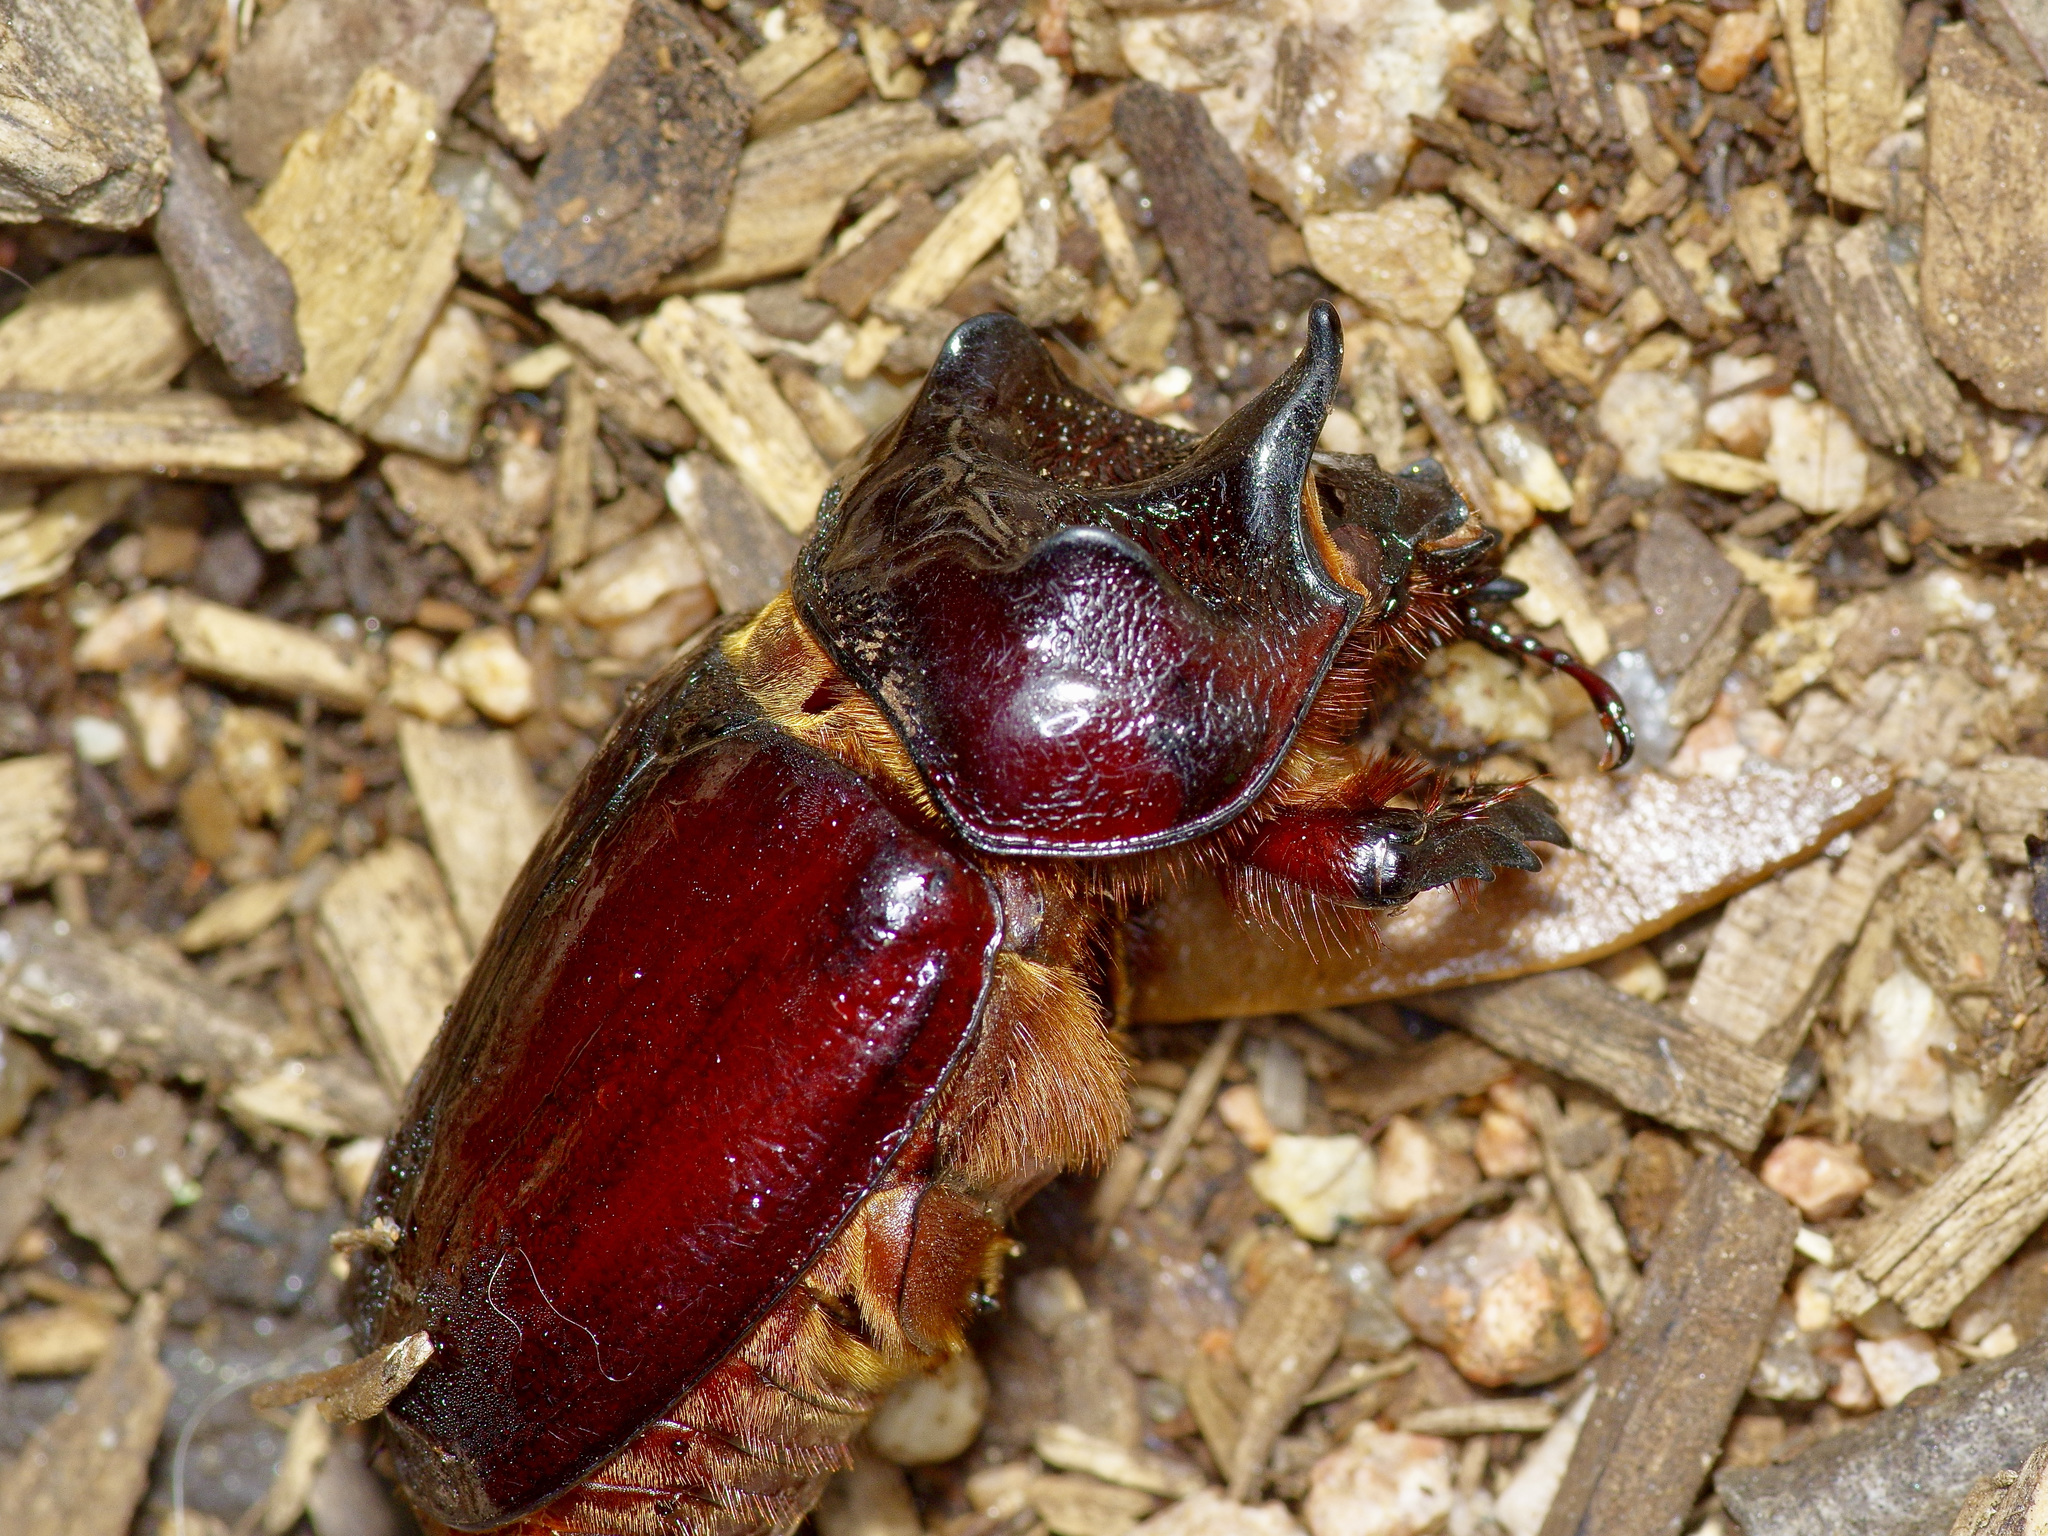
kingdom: Animalia
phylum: Arthropoda
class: Insecta
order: Coleoptera
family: Scarabaeidae
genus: Strategus
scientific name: Strategus aloeus
